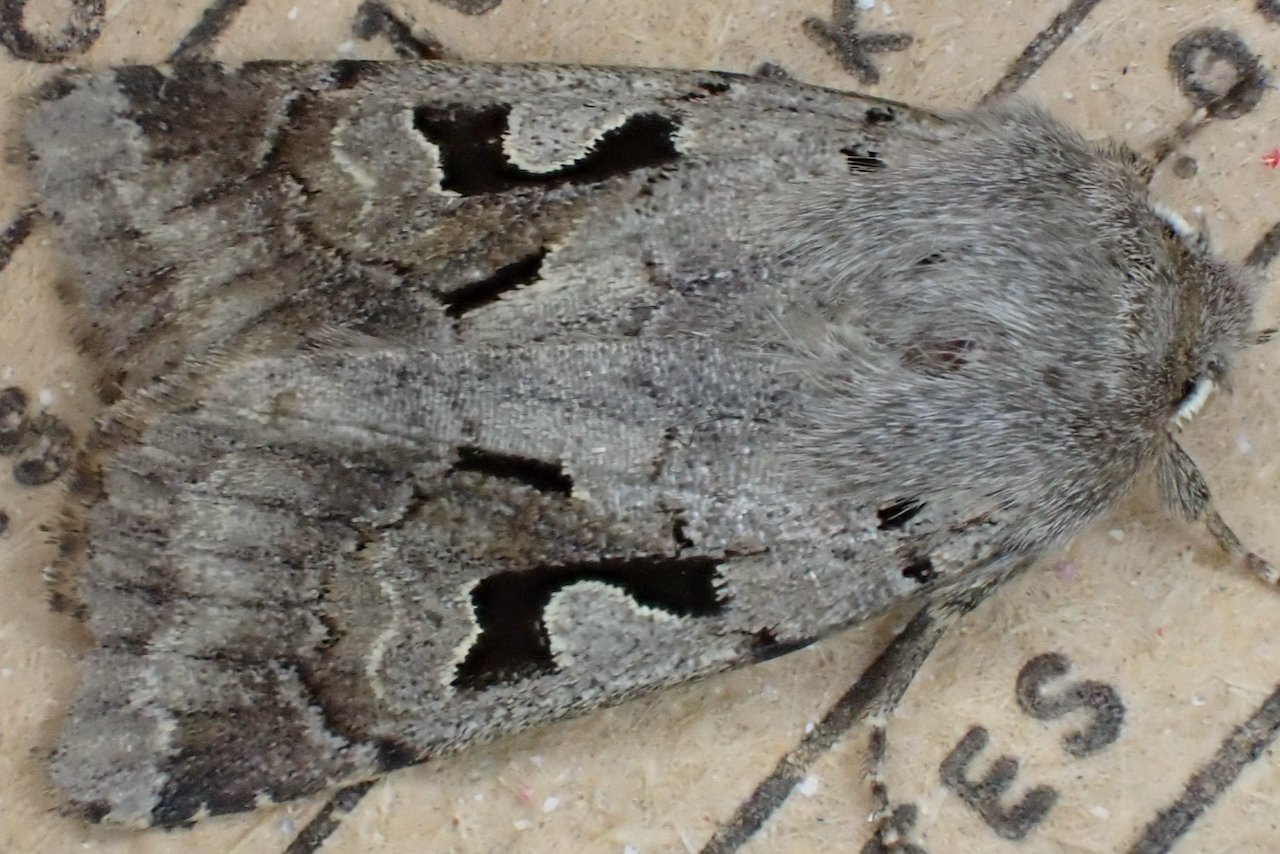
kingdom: Animalia
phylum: Arthropoda
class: Insecta
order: Lepidoptera
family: Noctuidae
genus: Orthosia
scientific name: Orthosia gothica
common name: Hebrew character
